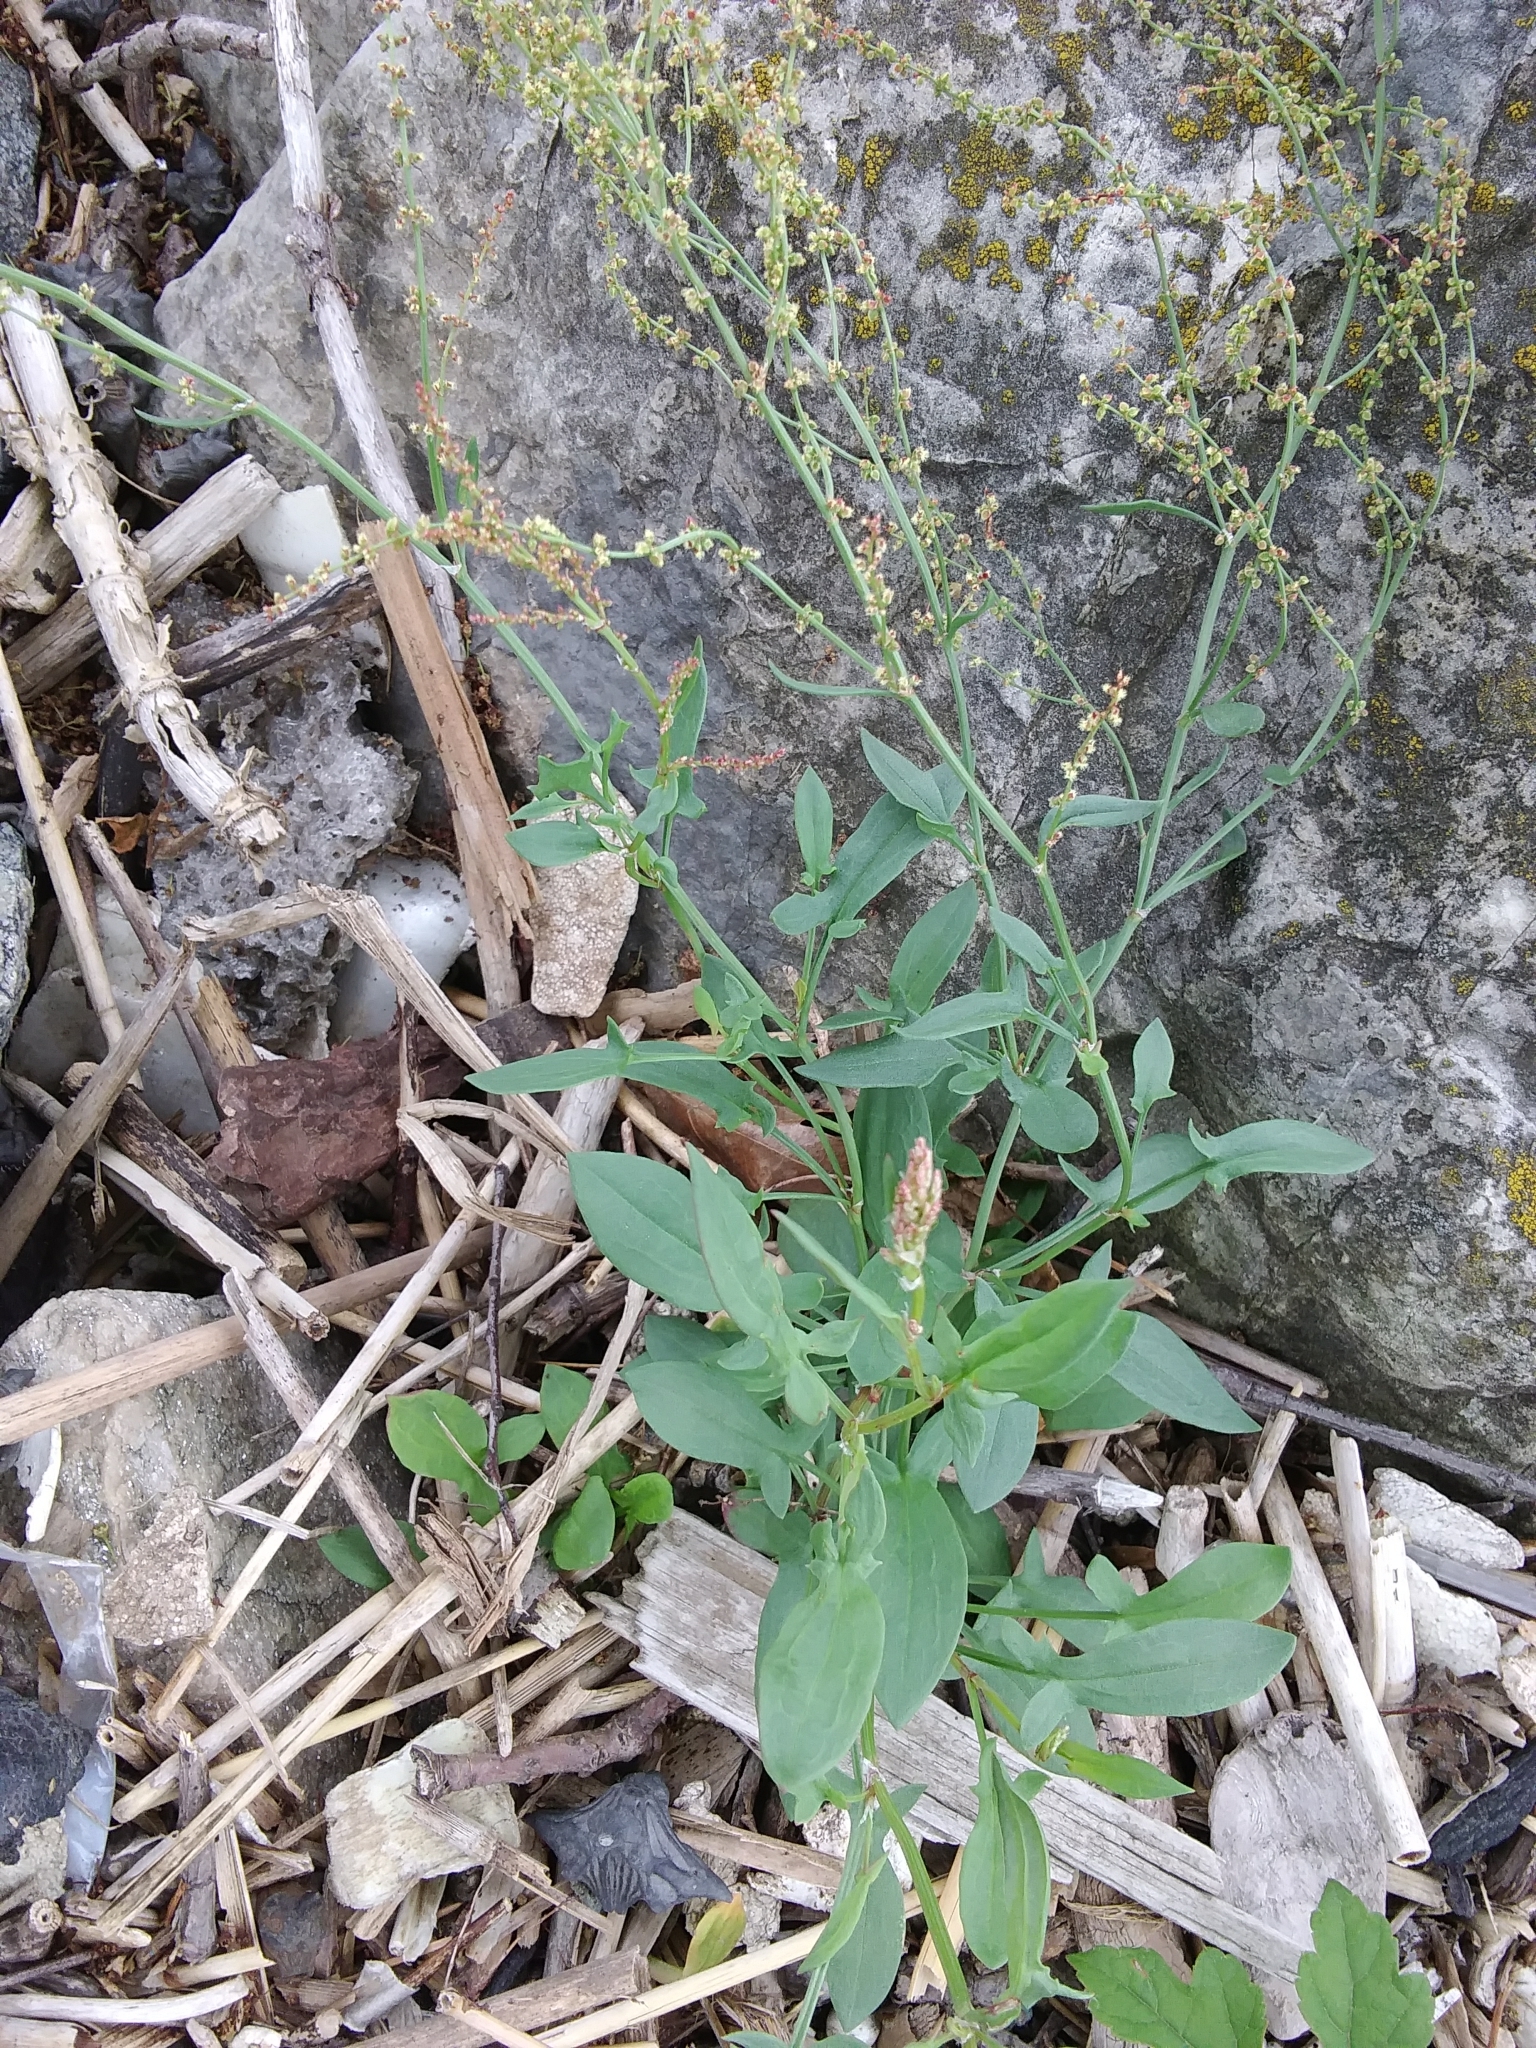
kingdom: Plantae
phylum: Tracheophyta
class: Magnoliopsida
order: Caryophyllales
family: Polygonaceae
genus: Rumex
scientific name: Rumex acetosella
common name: Common sheep sorrel
